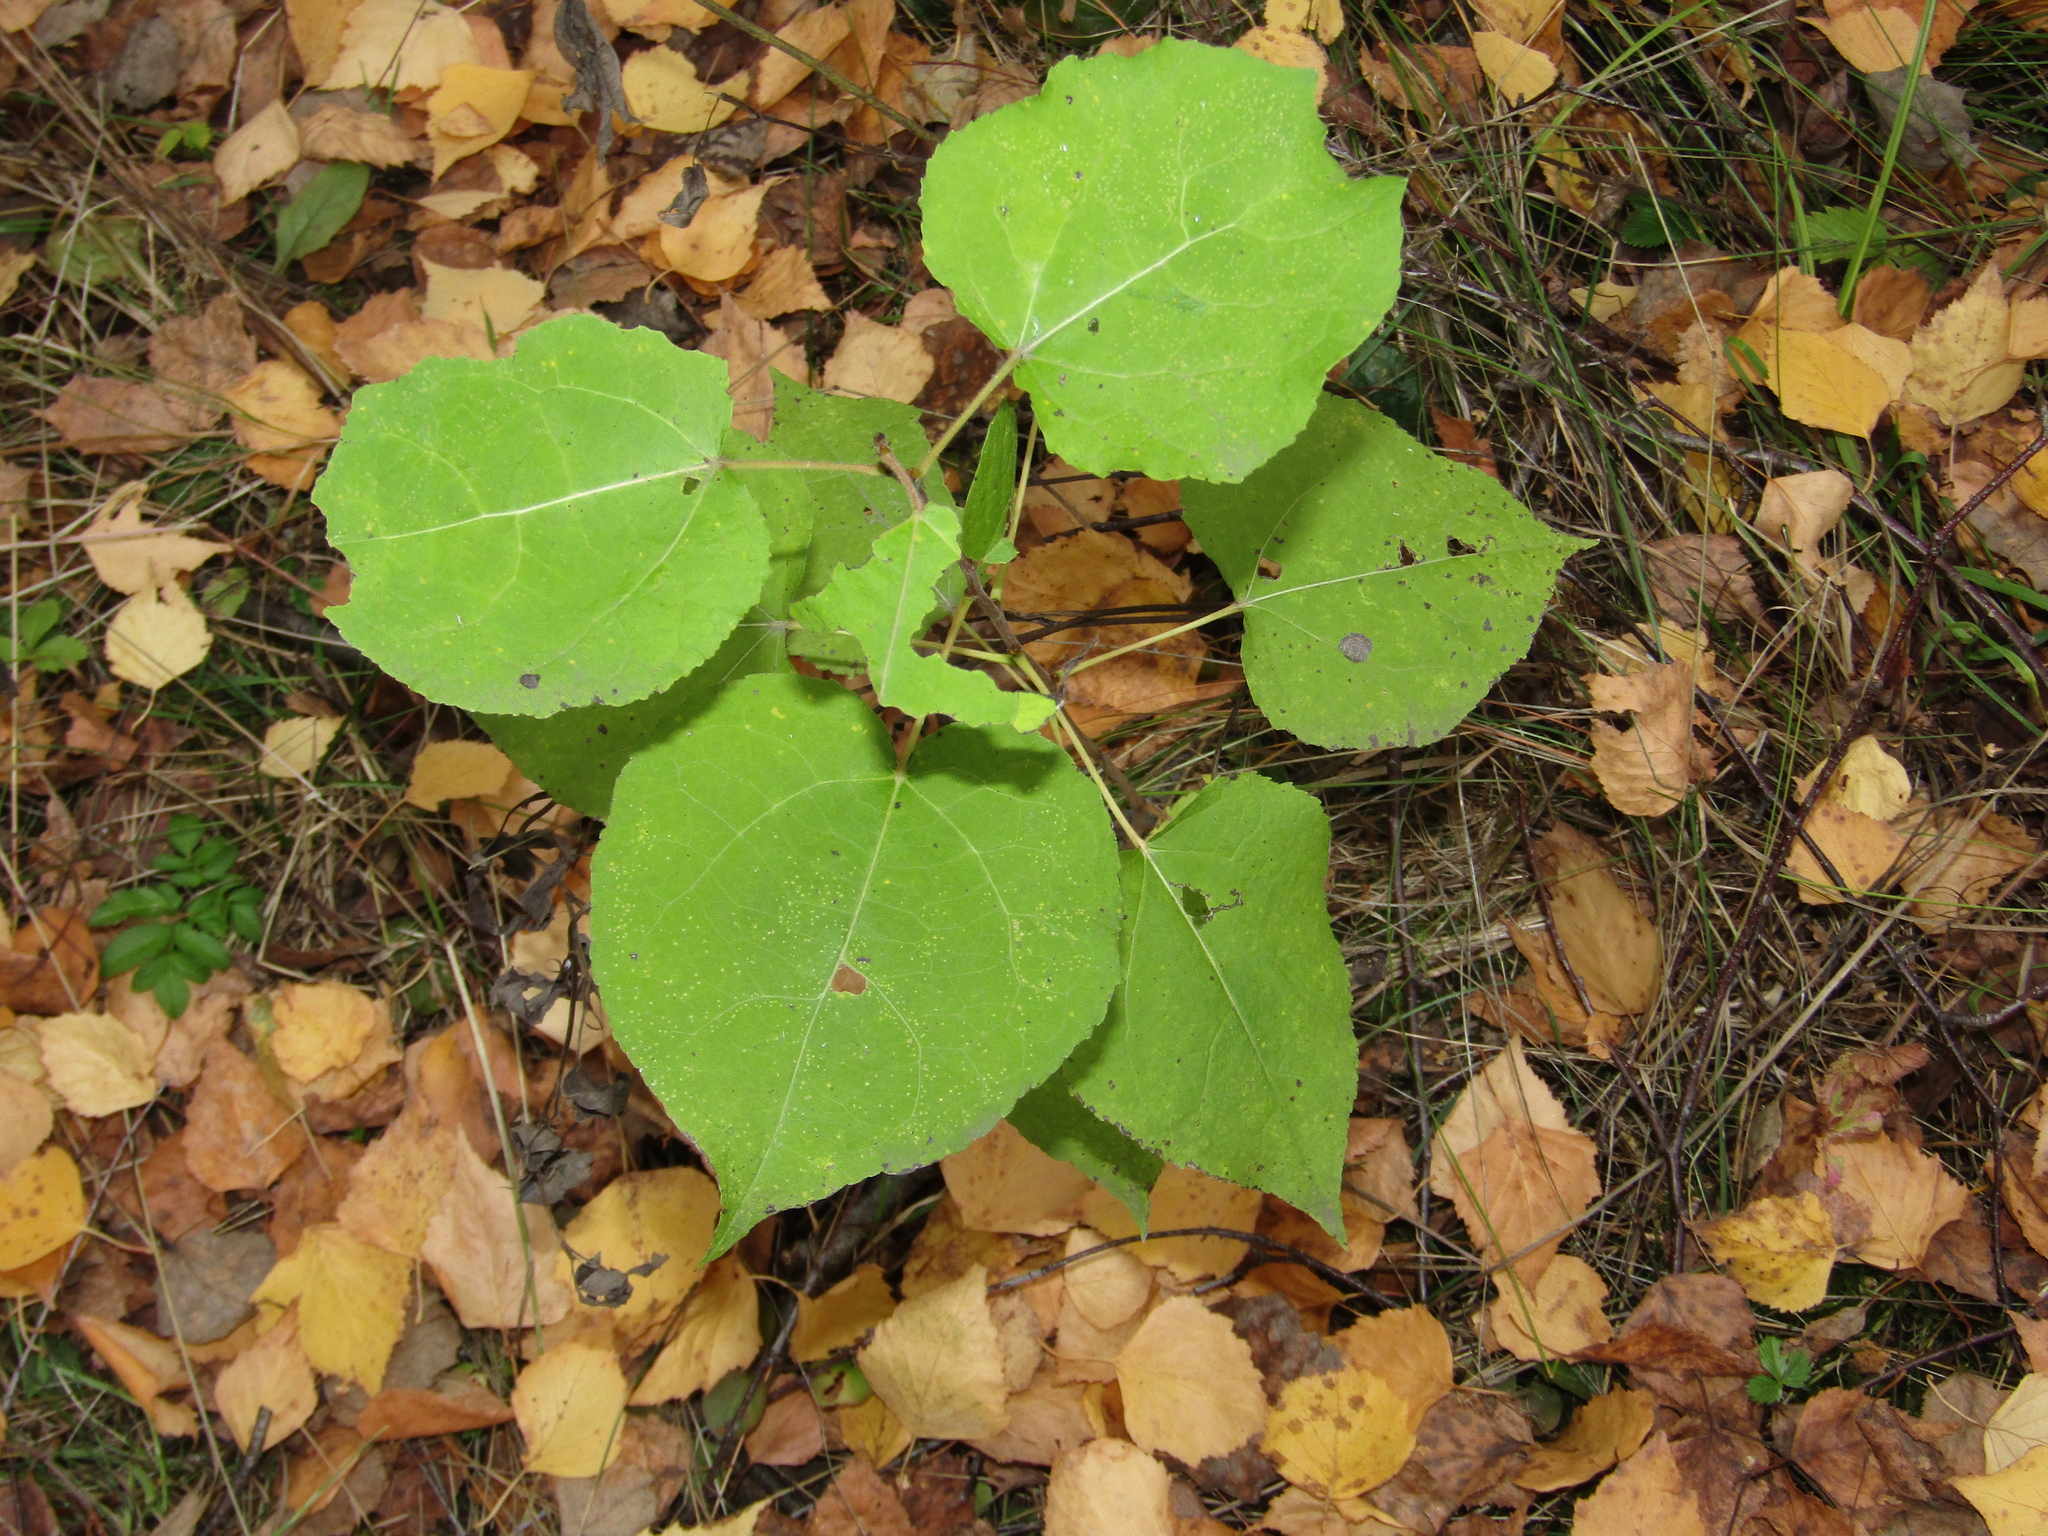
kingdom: Plantae
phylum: Tracheophyta
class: Magnoliopsida
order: Malpighiales
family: Salicaceae
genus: Populus
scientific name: Populus tremula
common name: European aspen
